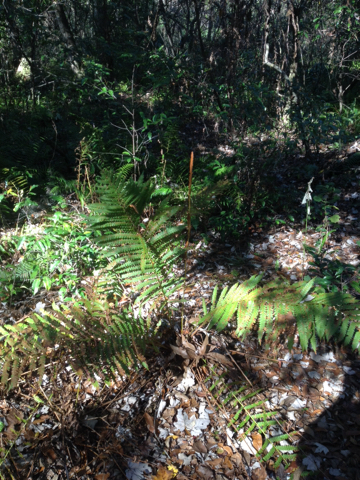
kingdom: Plantae
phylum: Tracheophyta
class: Polypodiopsida
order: Osmundales
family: Osmundaceae
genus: Osmundastrum
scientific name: Osmundastrum cinnamomeum
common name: Cinnamon fern
